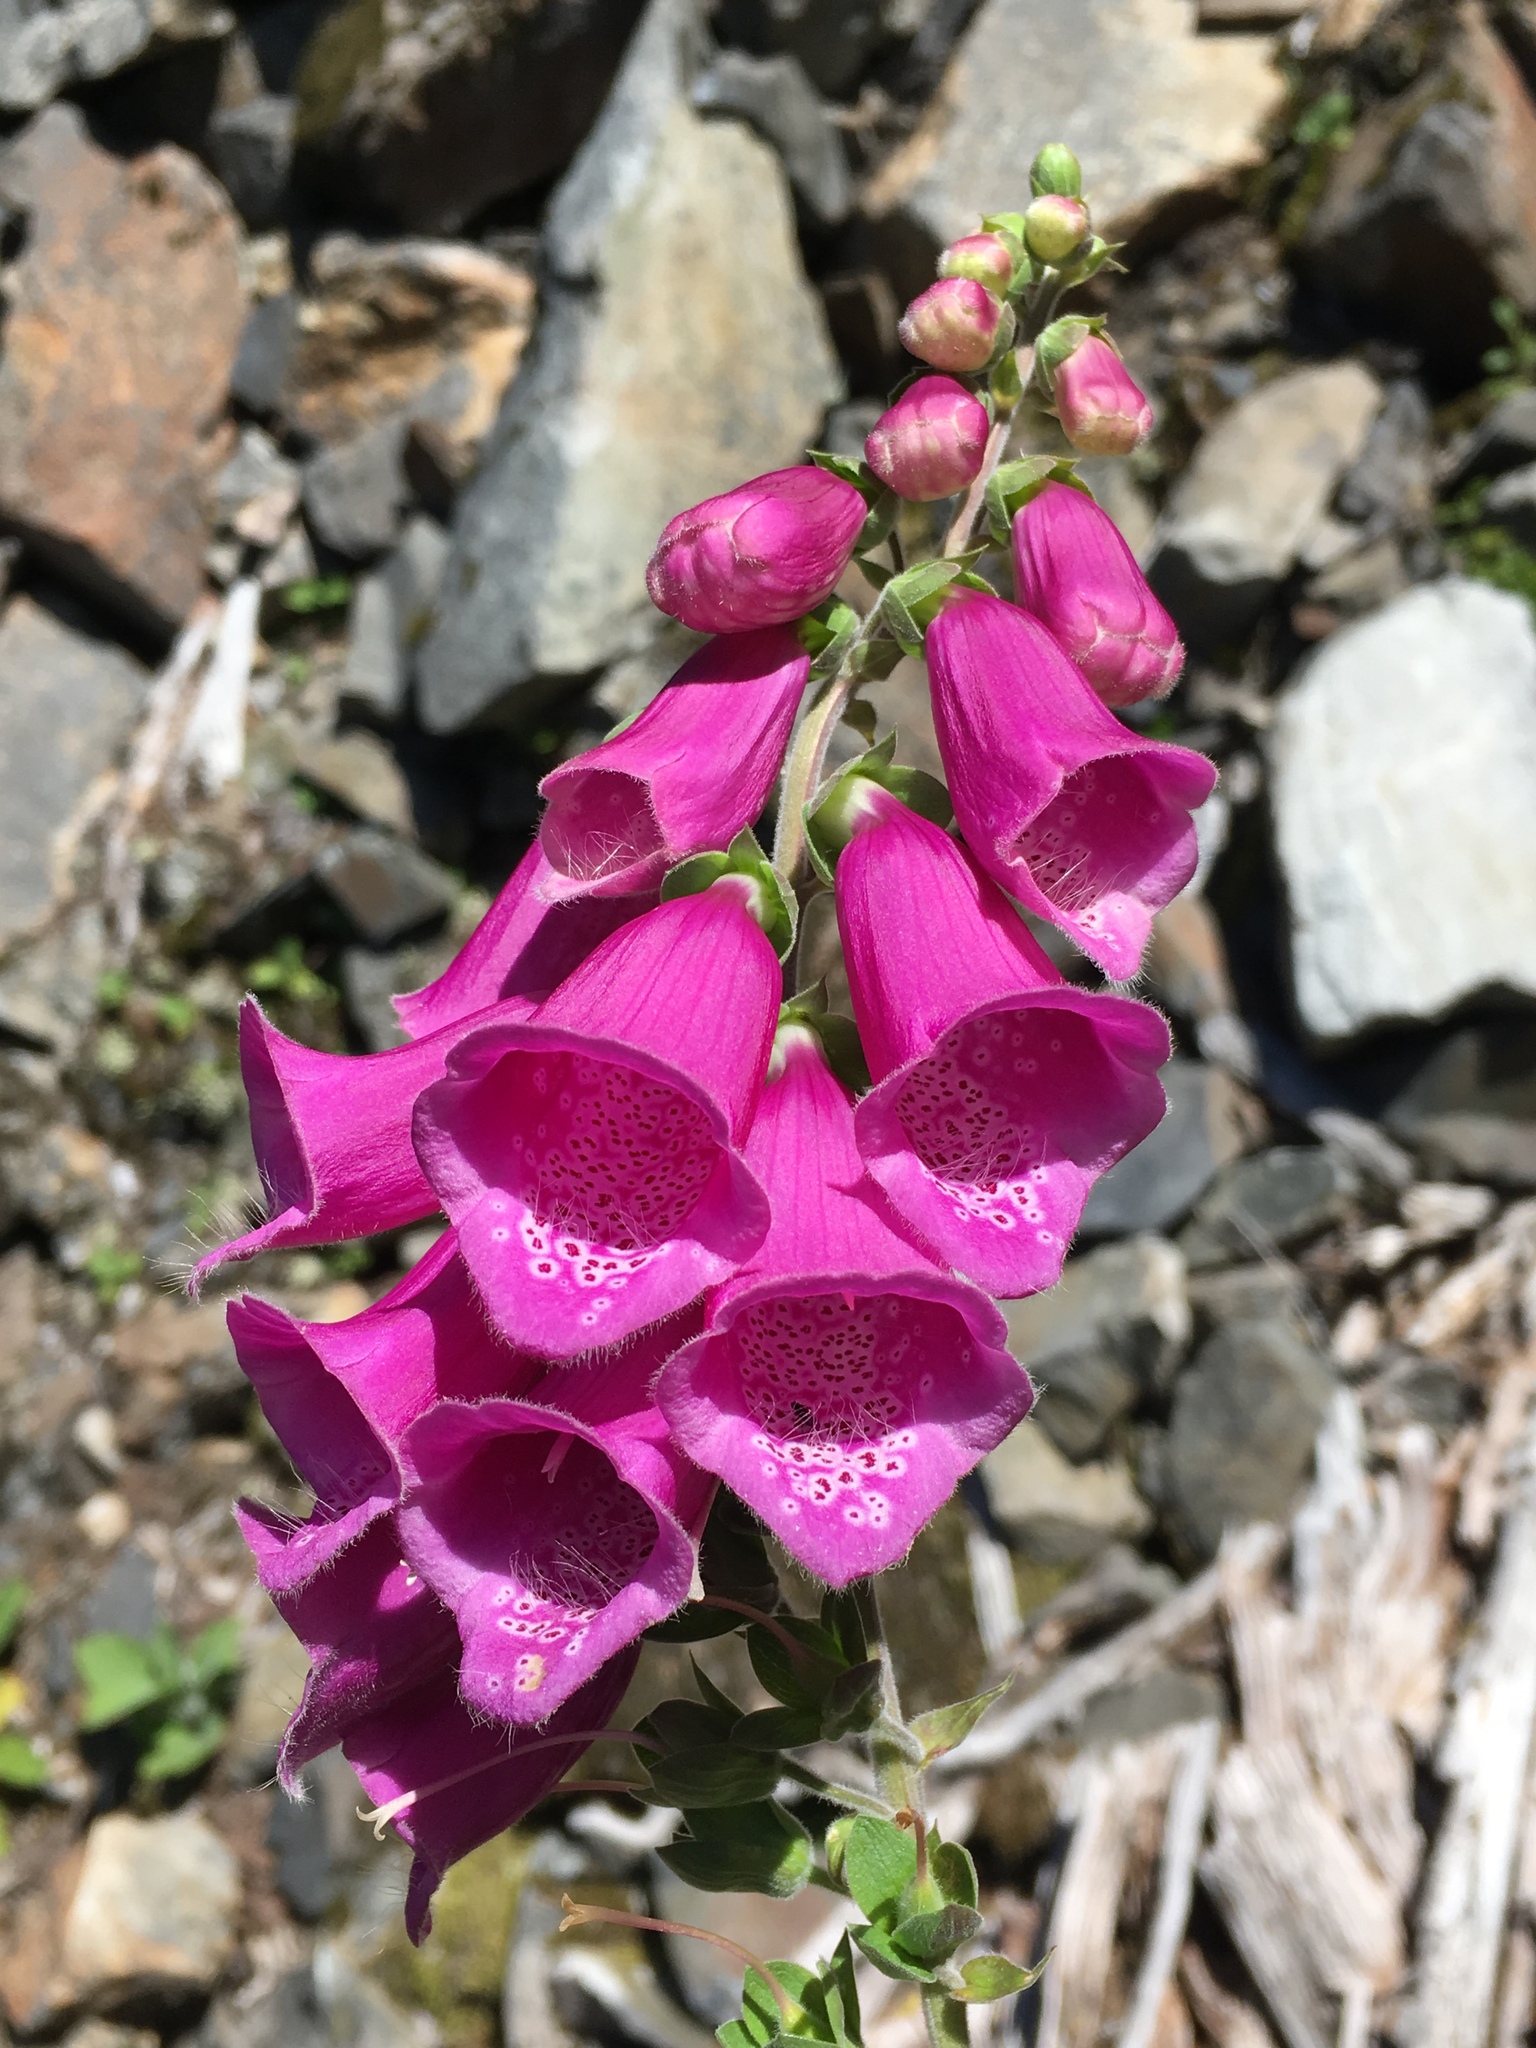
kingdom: Plantae
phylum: Tracheophyta
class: Magnoliopsida
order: Lamiales
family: Plantaginaceae
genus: Digitalis
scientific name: Digitalis purpurea
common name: Foxglove
